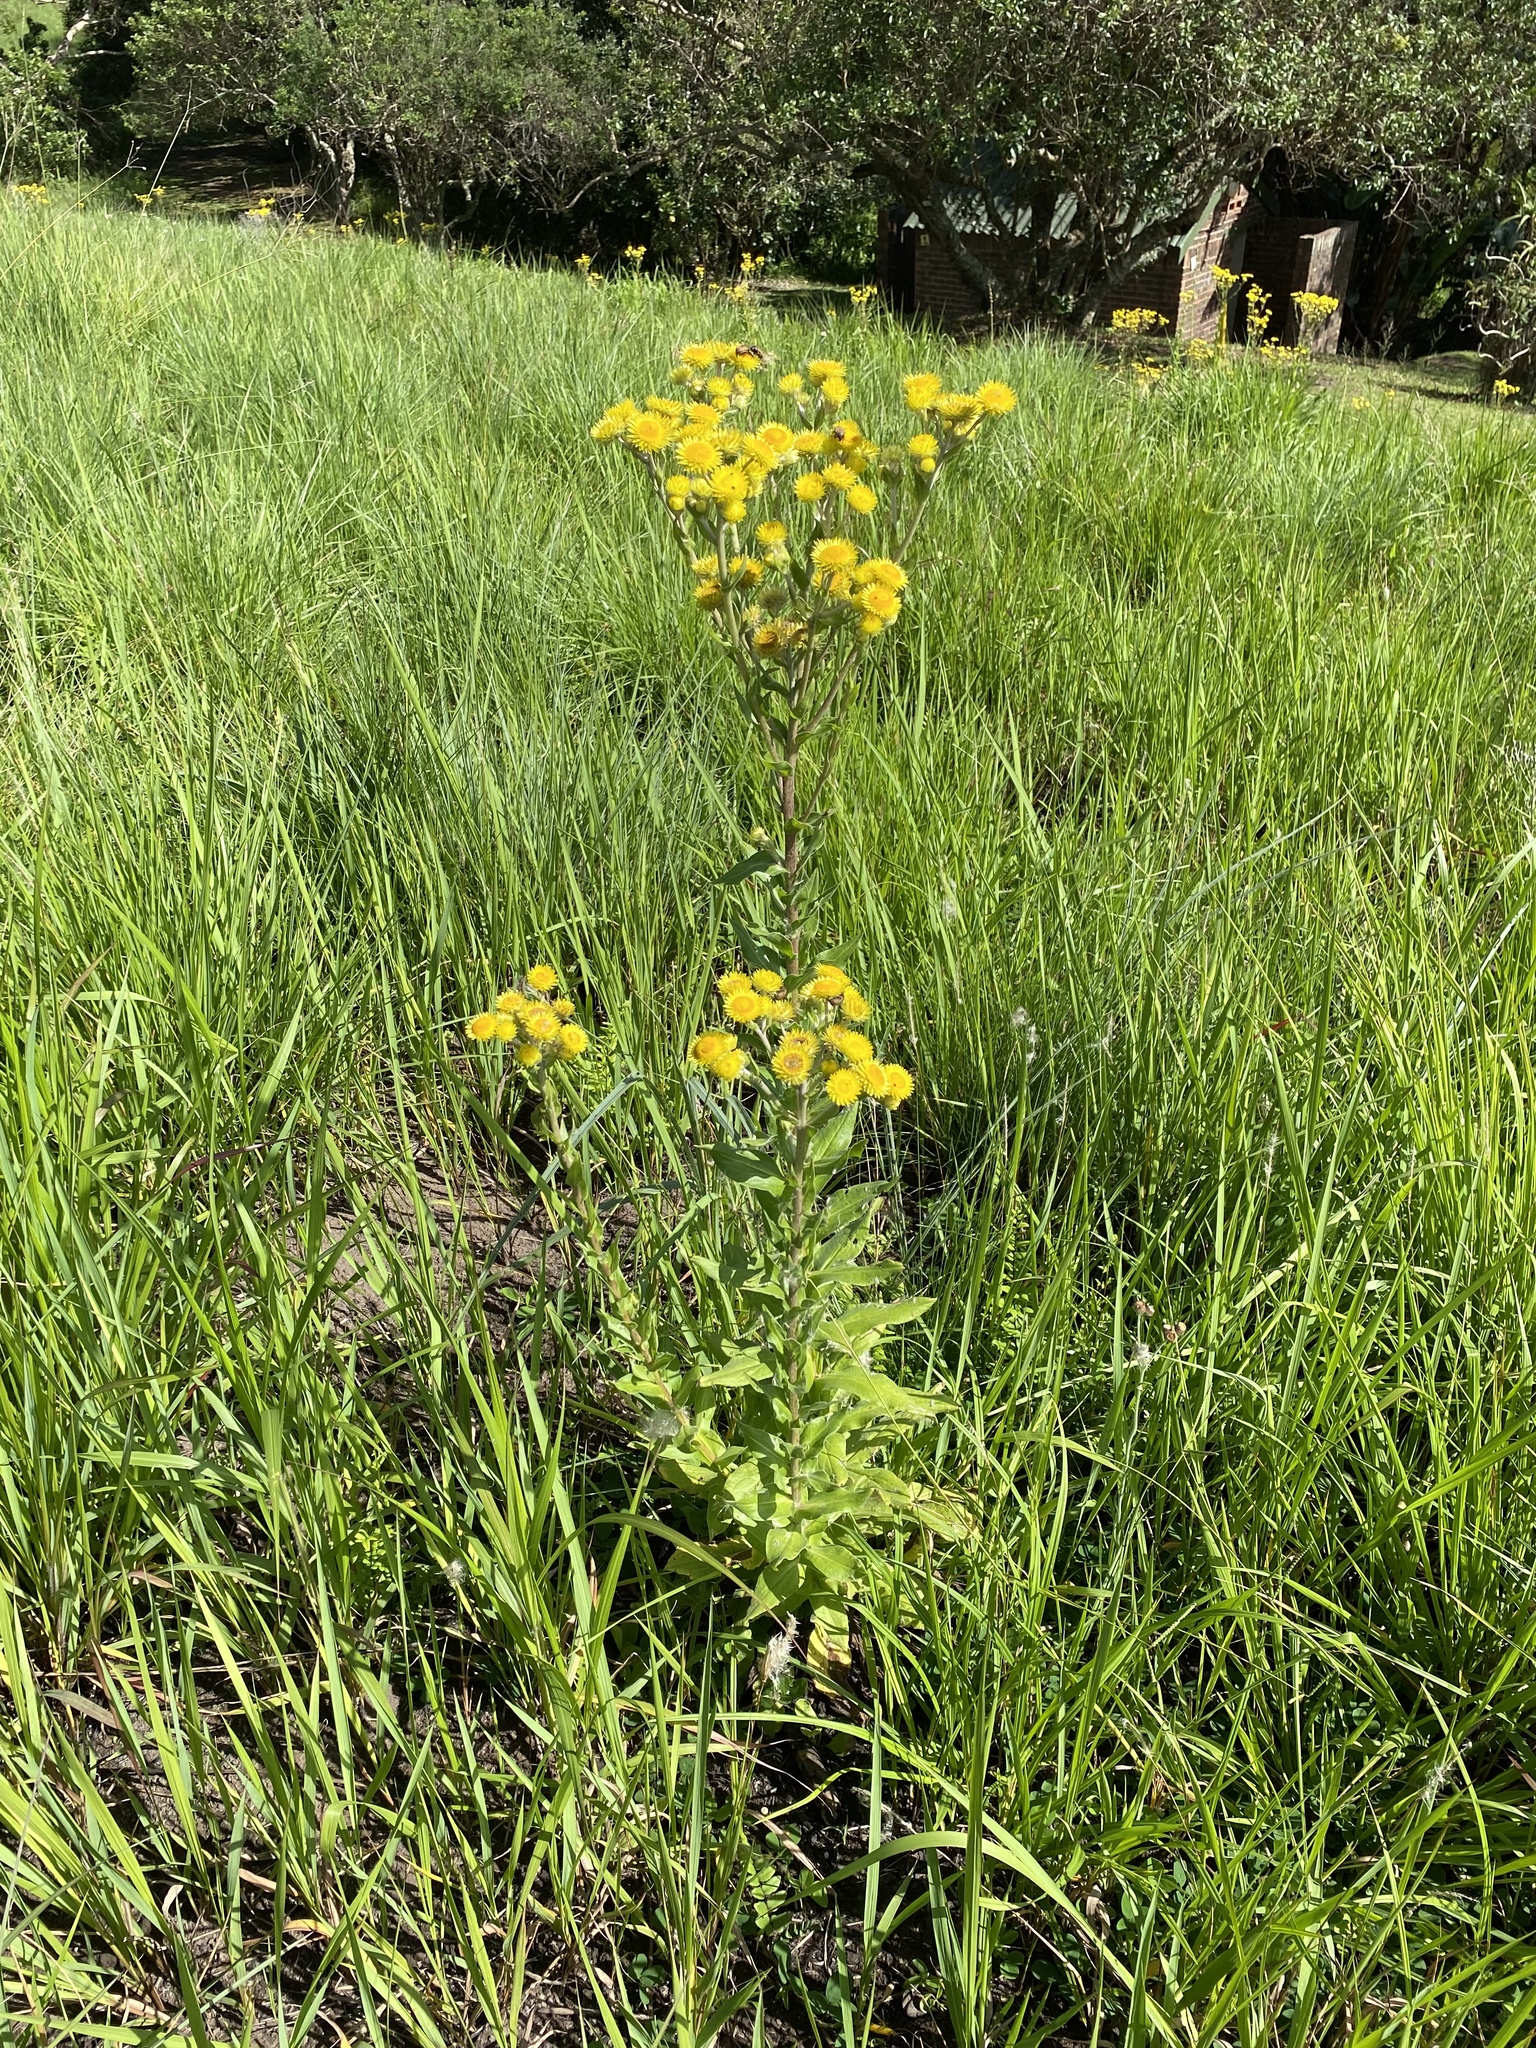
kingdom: Plantae
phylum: Tracheophyta
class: Magnoliopsida
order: Asterales
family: Asteraceae
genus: Helichrysum
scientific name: Helichrysum ruderale
